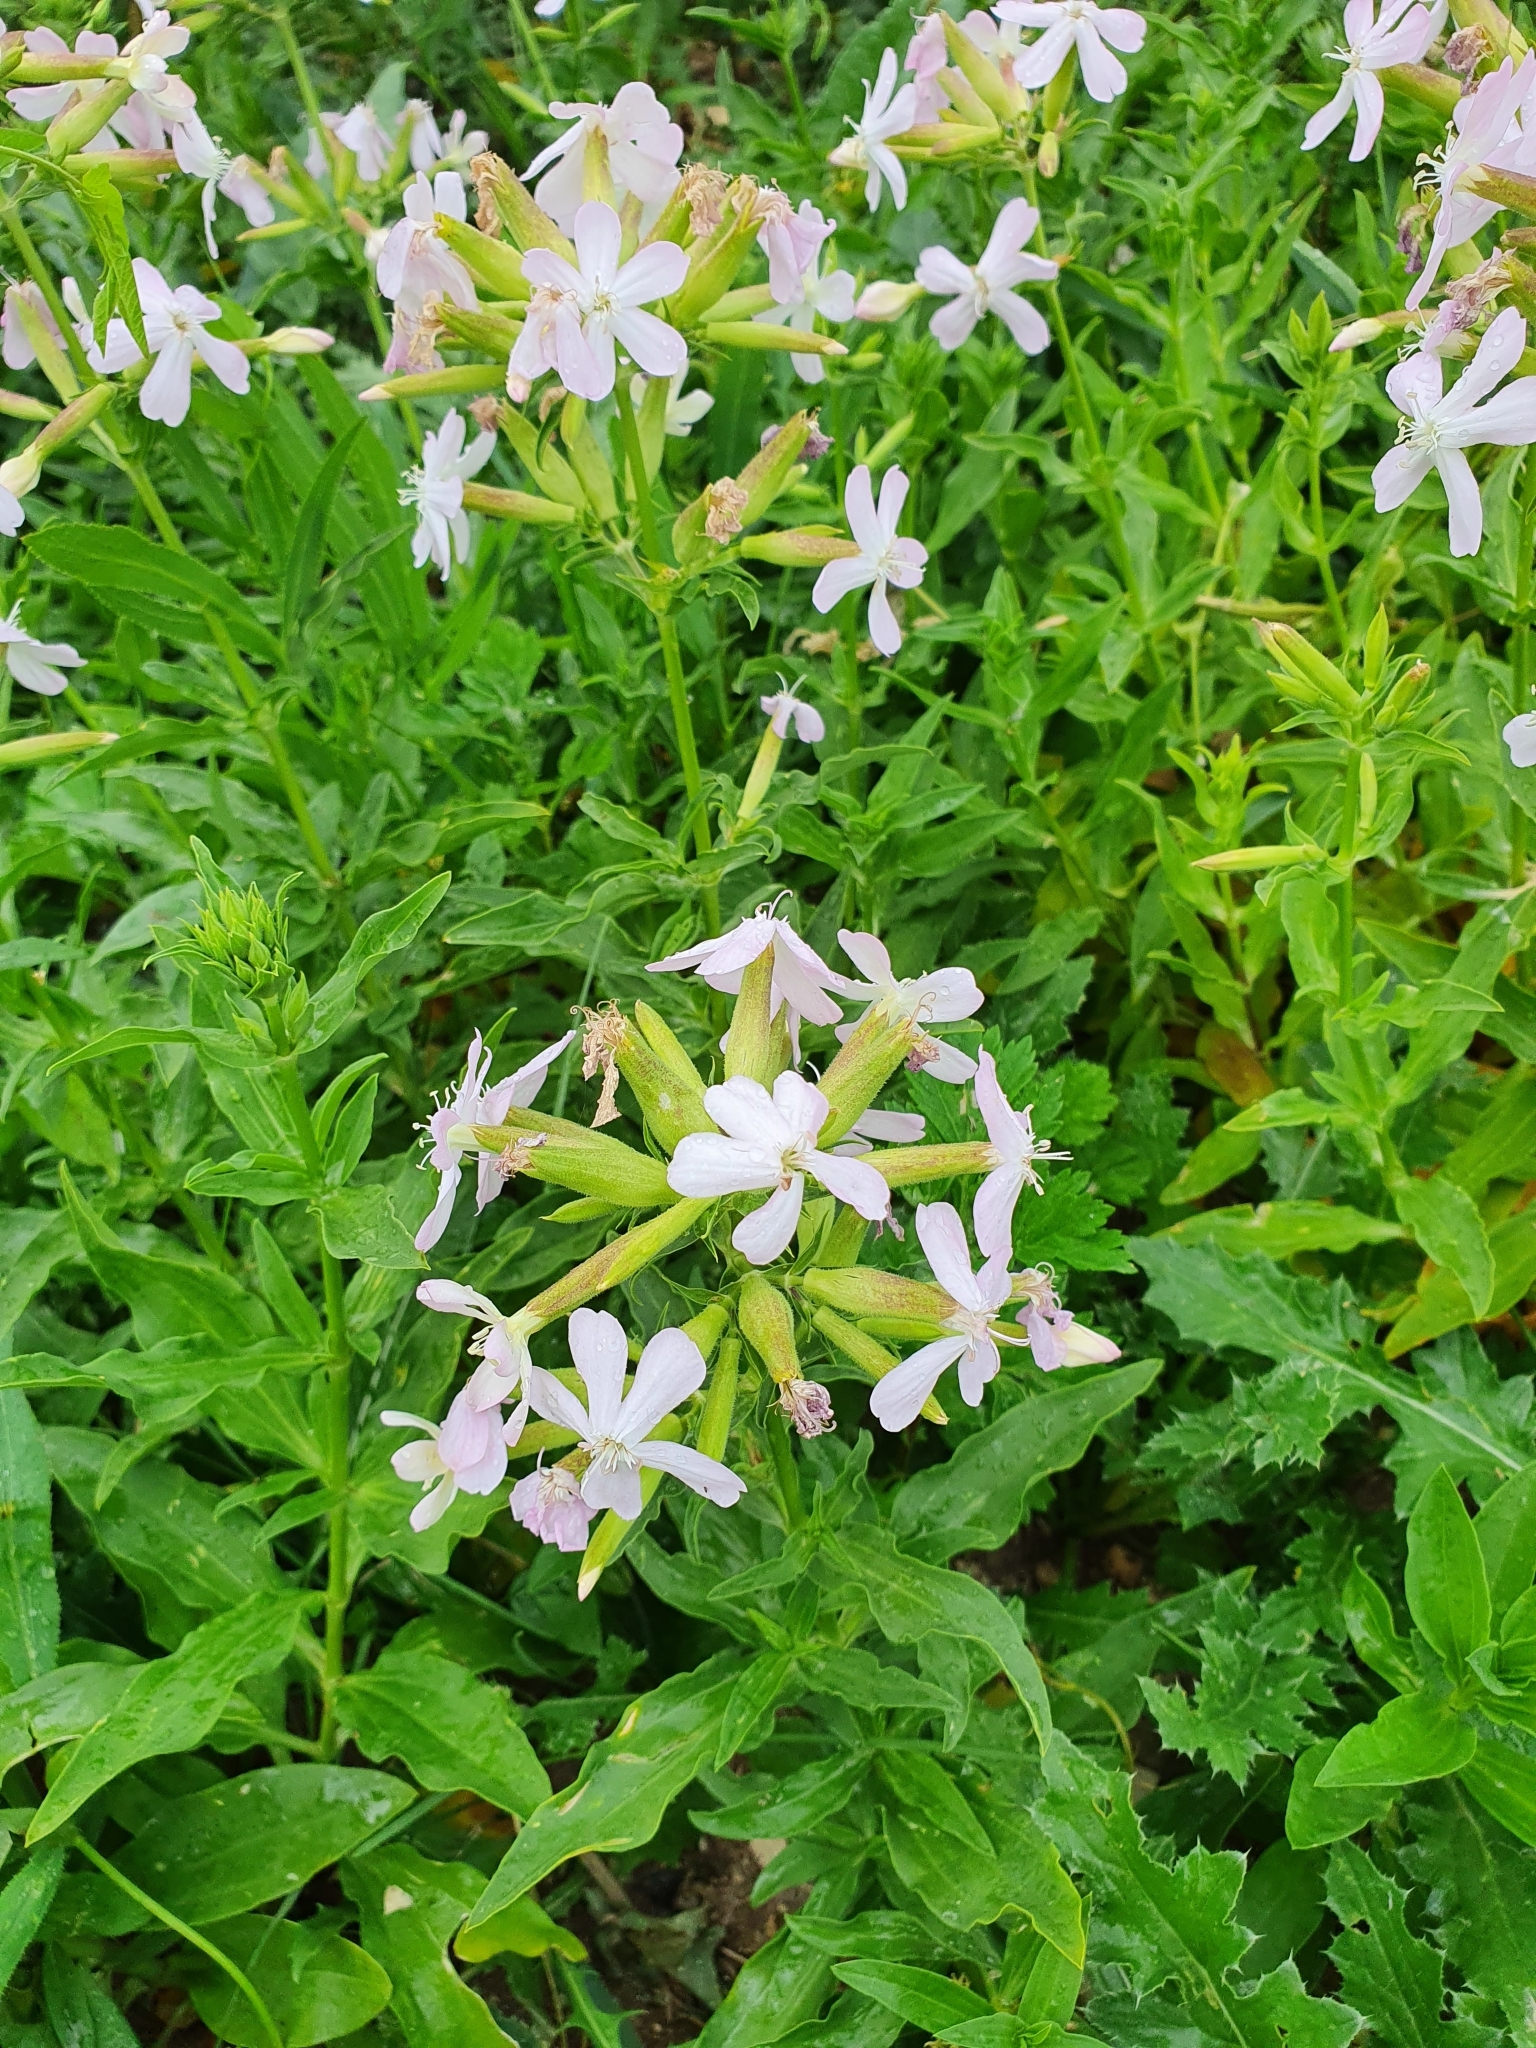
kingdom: Plantae
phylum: Tracheophyta
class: Magnoliopsida
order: Caryophyllales
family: Caryophyllaceae
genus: Saponaria
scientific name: Saponaria officinalis
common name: Soapwort
